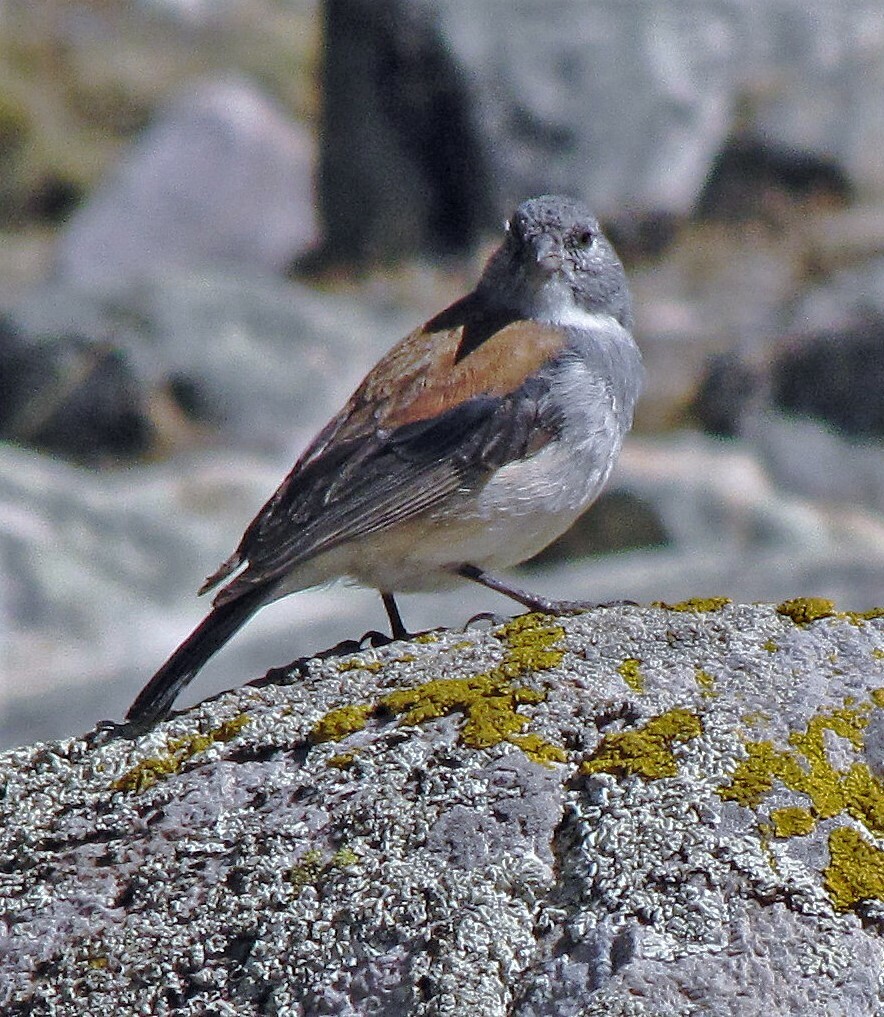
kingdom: Animalia
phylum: Chordata
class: Aves
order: Passeriformes
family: Thraupidae
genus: Idiopsar
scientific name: Idiopsar dorsalis
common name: Red-backed sierra finch
